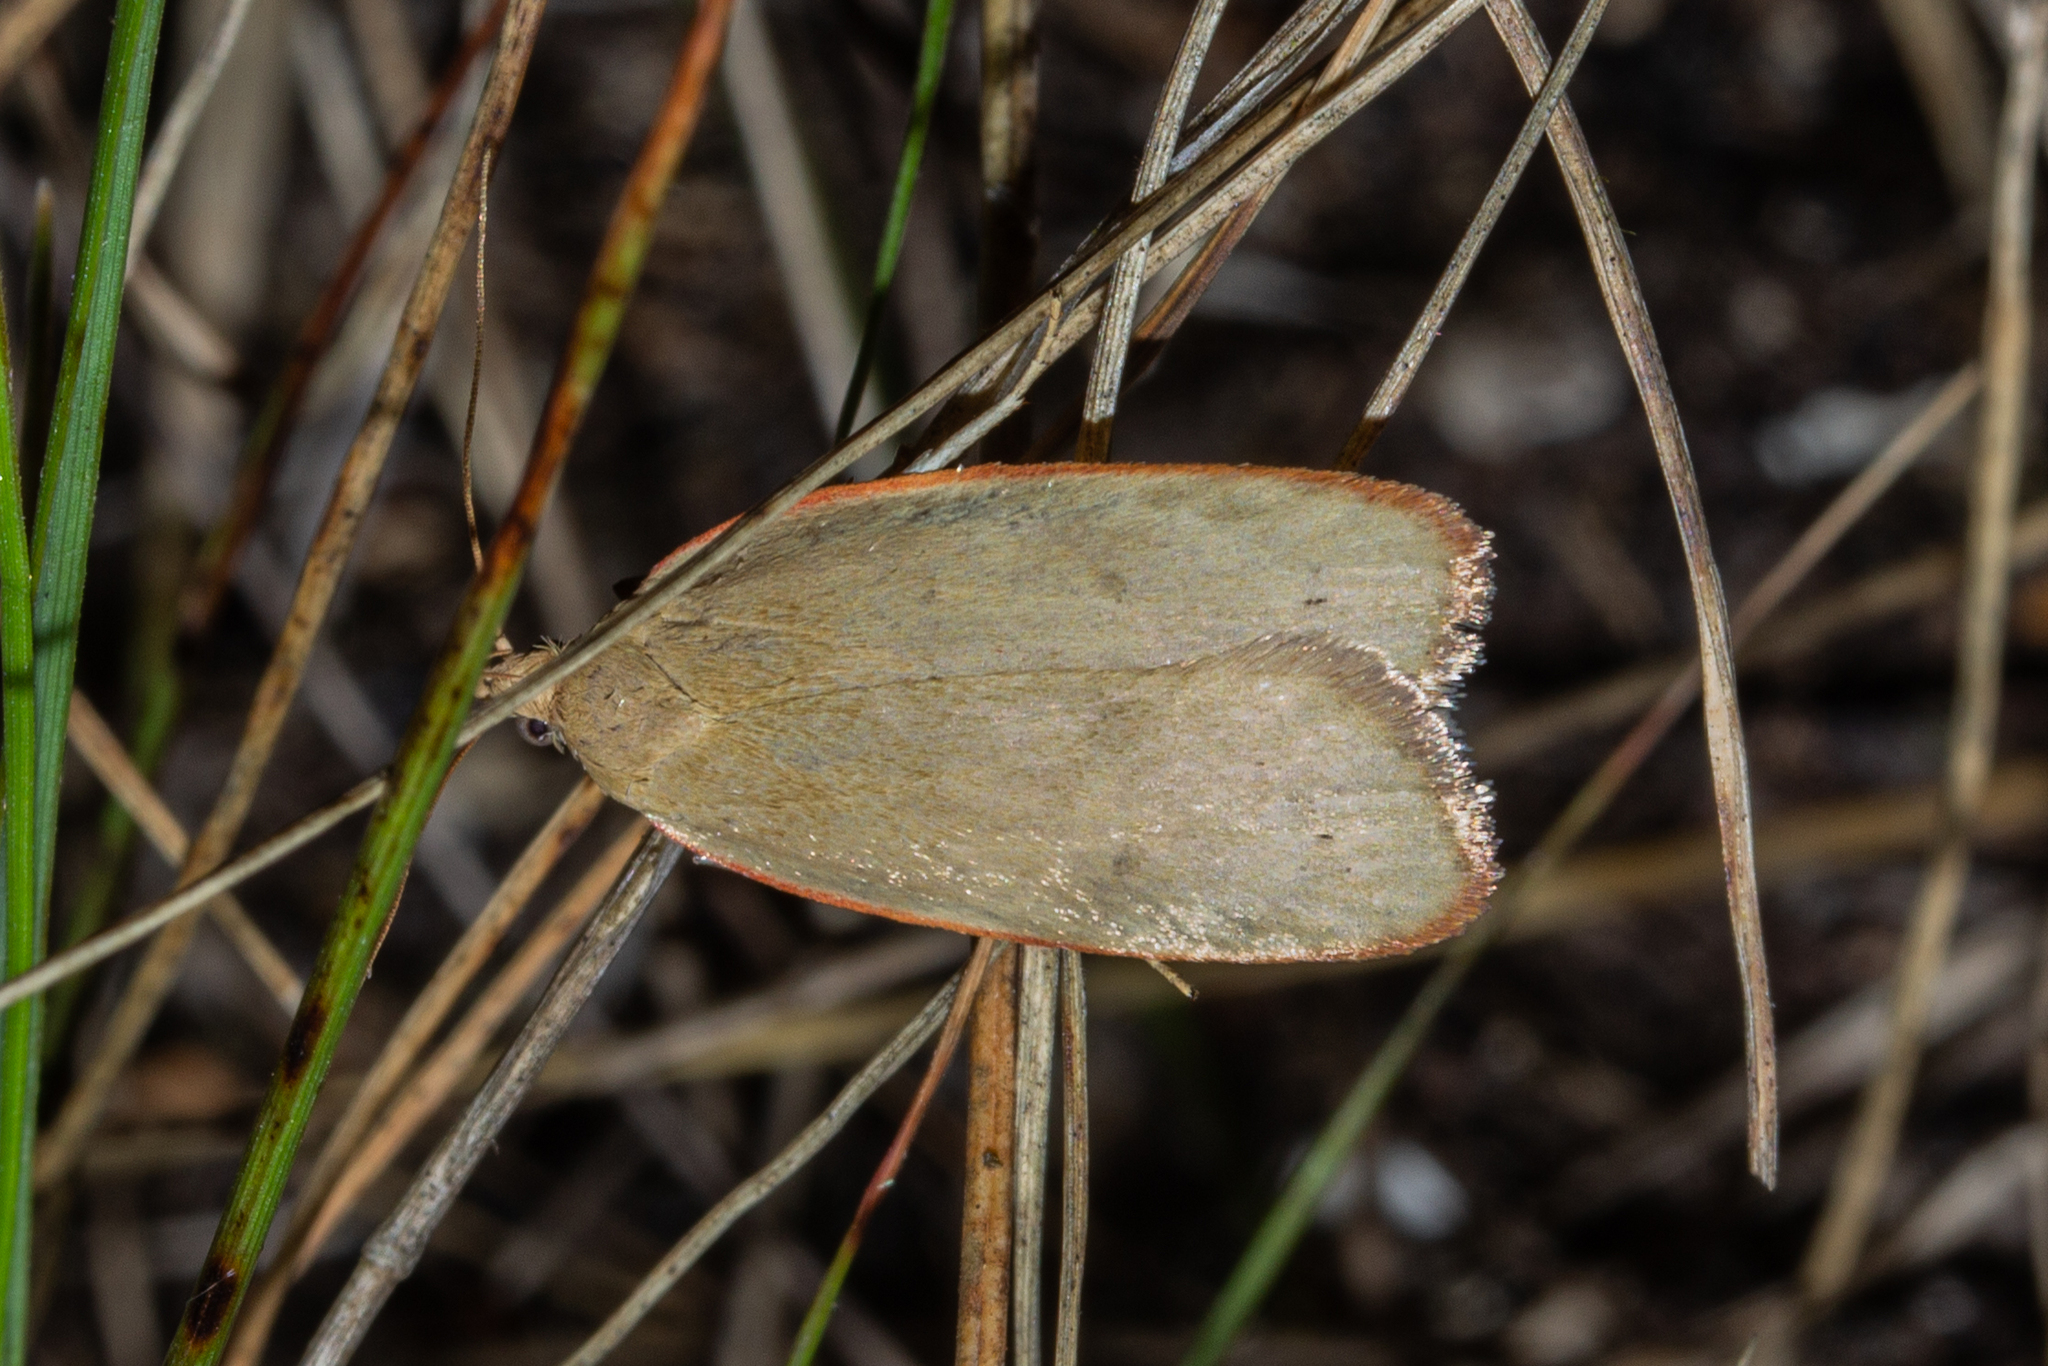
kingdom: Animalia
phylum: Arthropoda
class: Insecta
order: Lepidoptera
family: Depressariidae
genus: Phaeosaces
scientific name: Phaeosaces coarctatella
